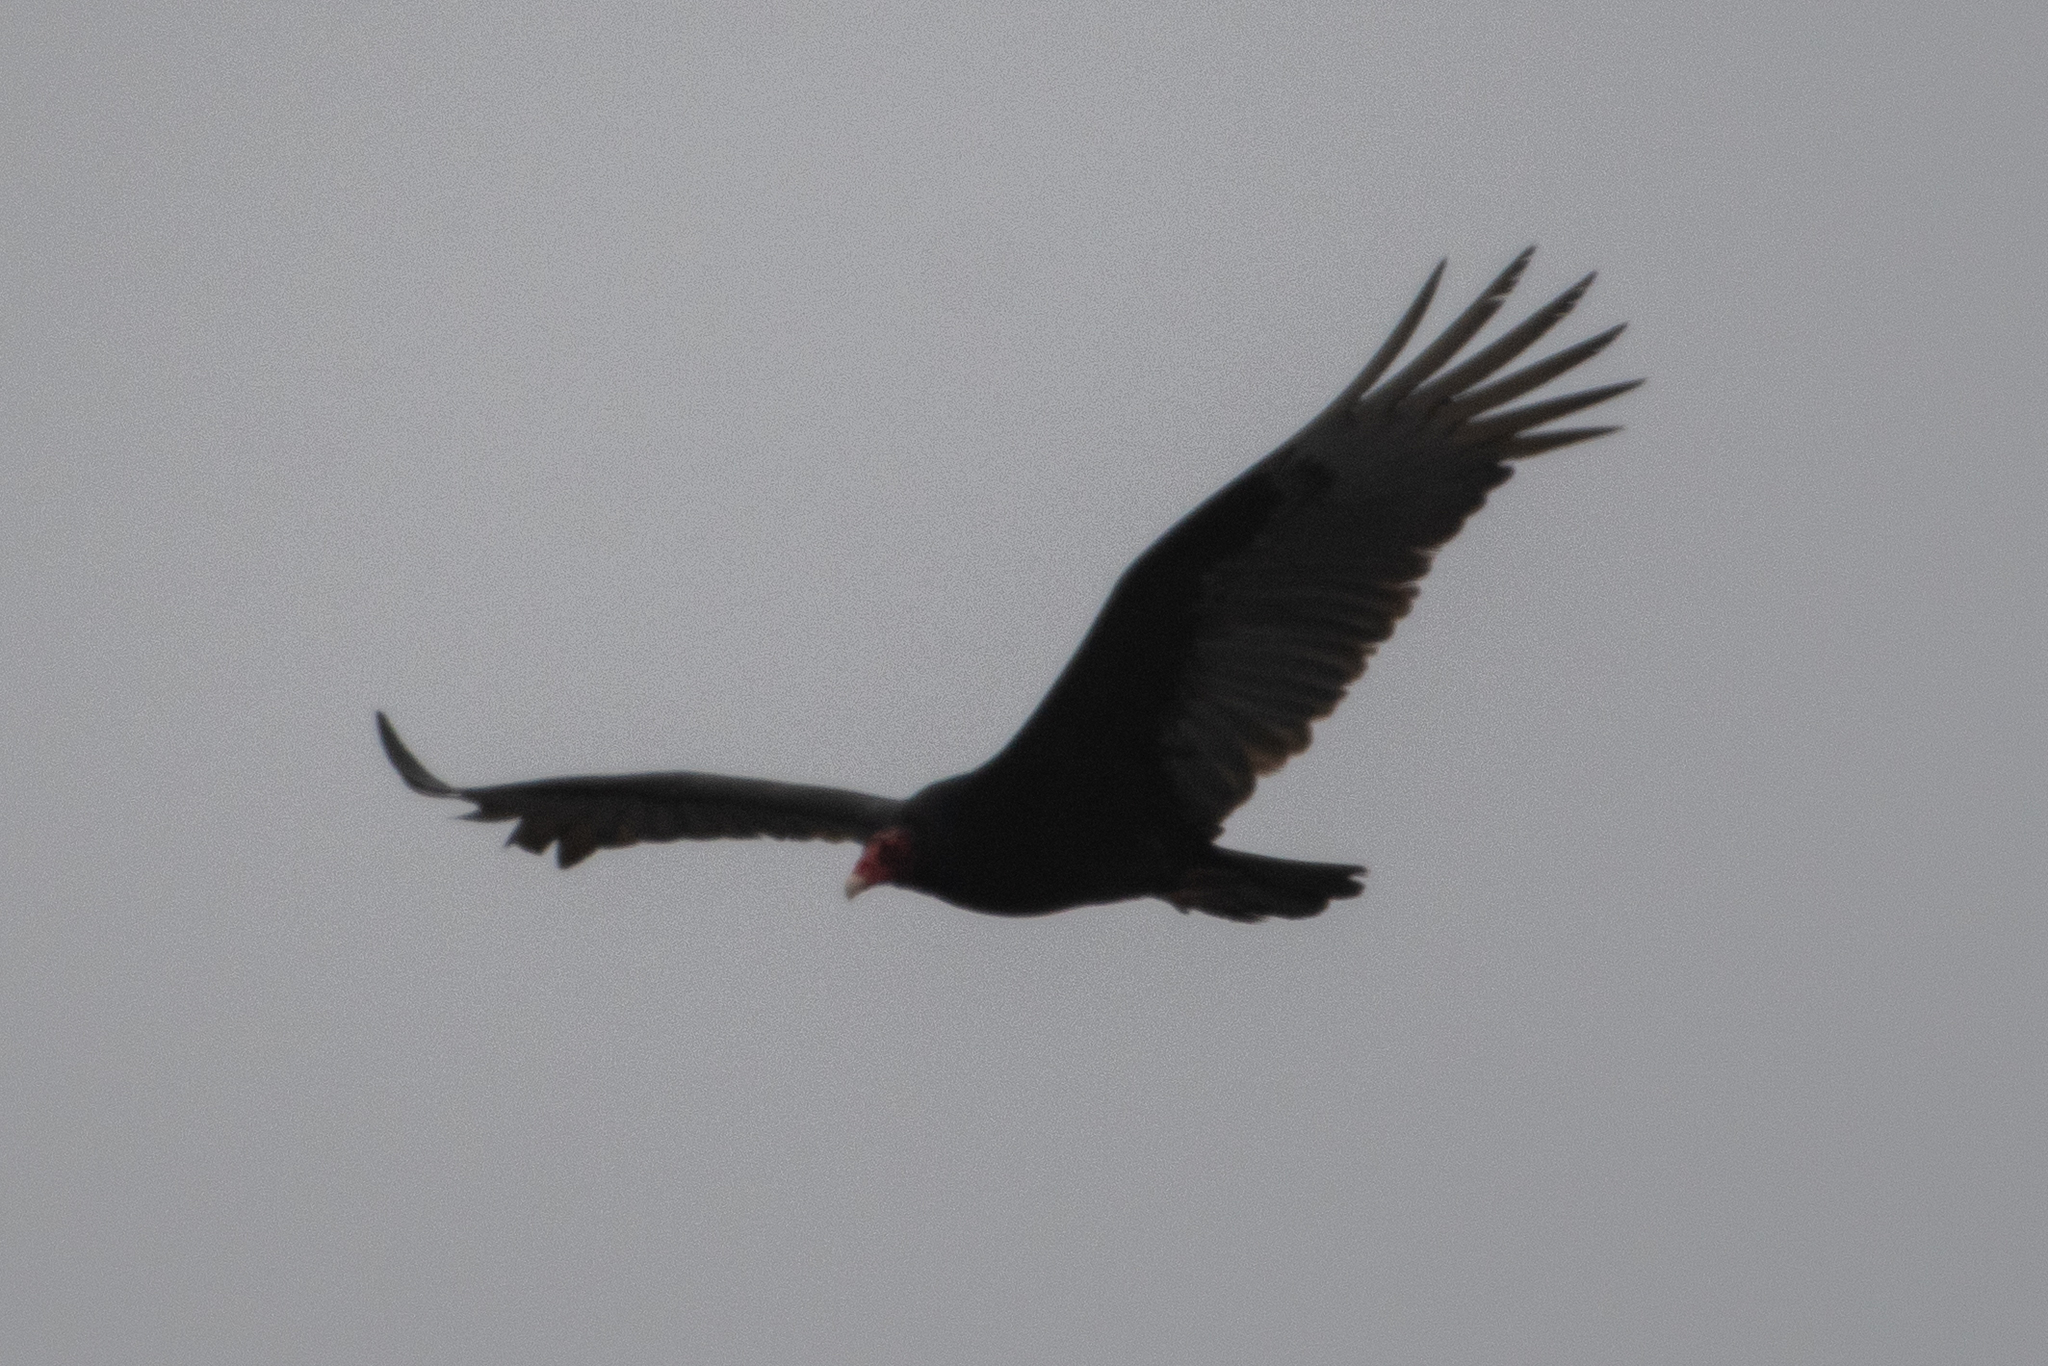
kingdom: Animalia
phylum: Chordata
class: Aves
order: Accipitriformes
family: Cathartidae
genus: Cathartes
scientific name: Cathartes aura
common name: Turkey vulture
